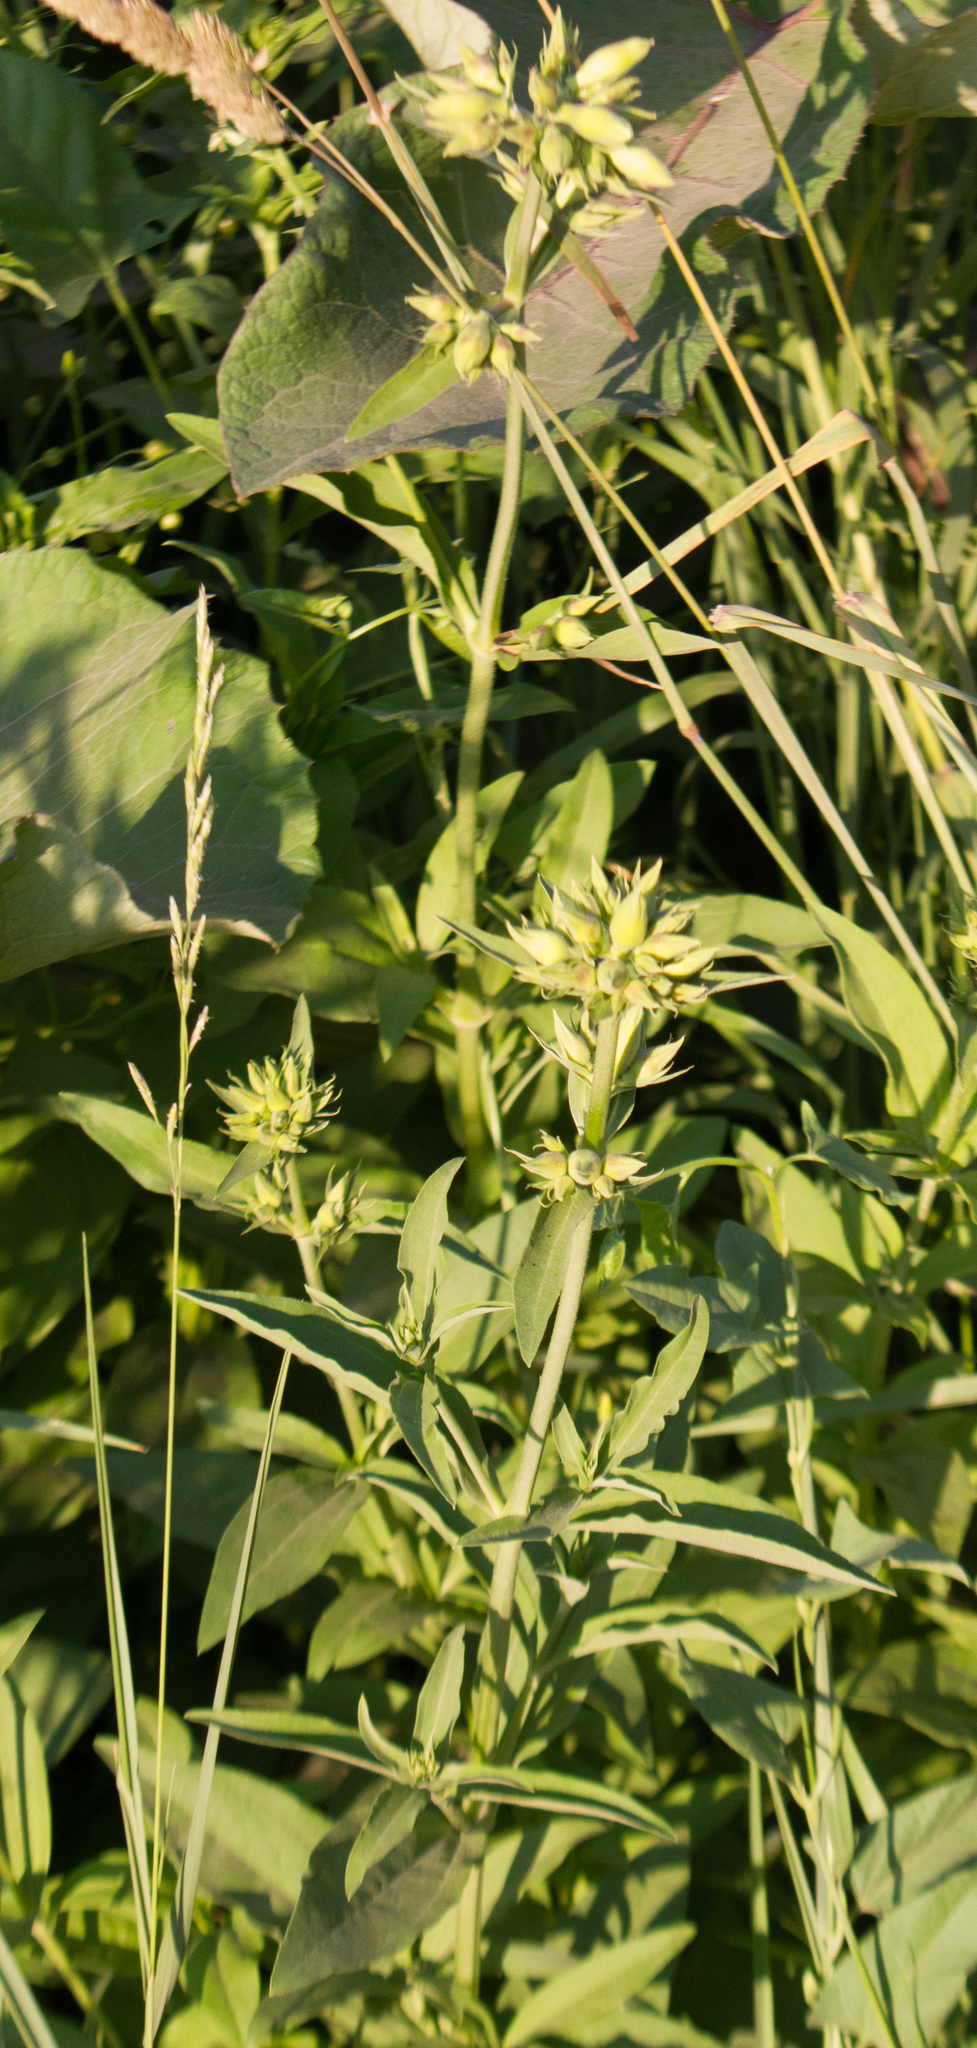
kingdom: Plantae
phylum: Tracheophyta
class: Magnoliopsida
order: Caryophyllales
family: Caryophyllaceae
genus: Saponaria
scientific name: Saponaria officinalis
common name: Soapwort
